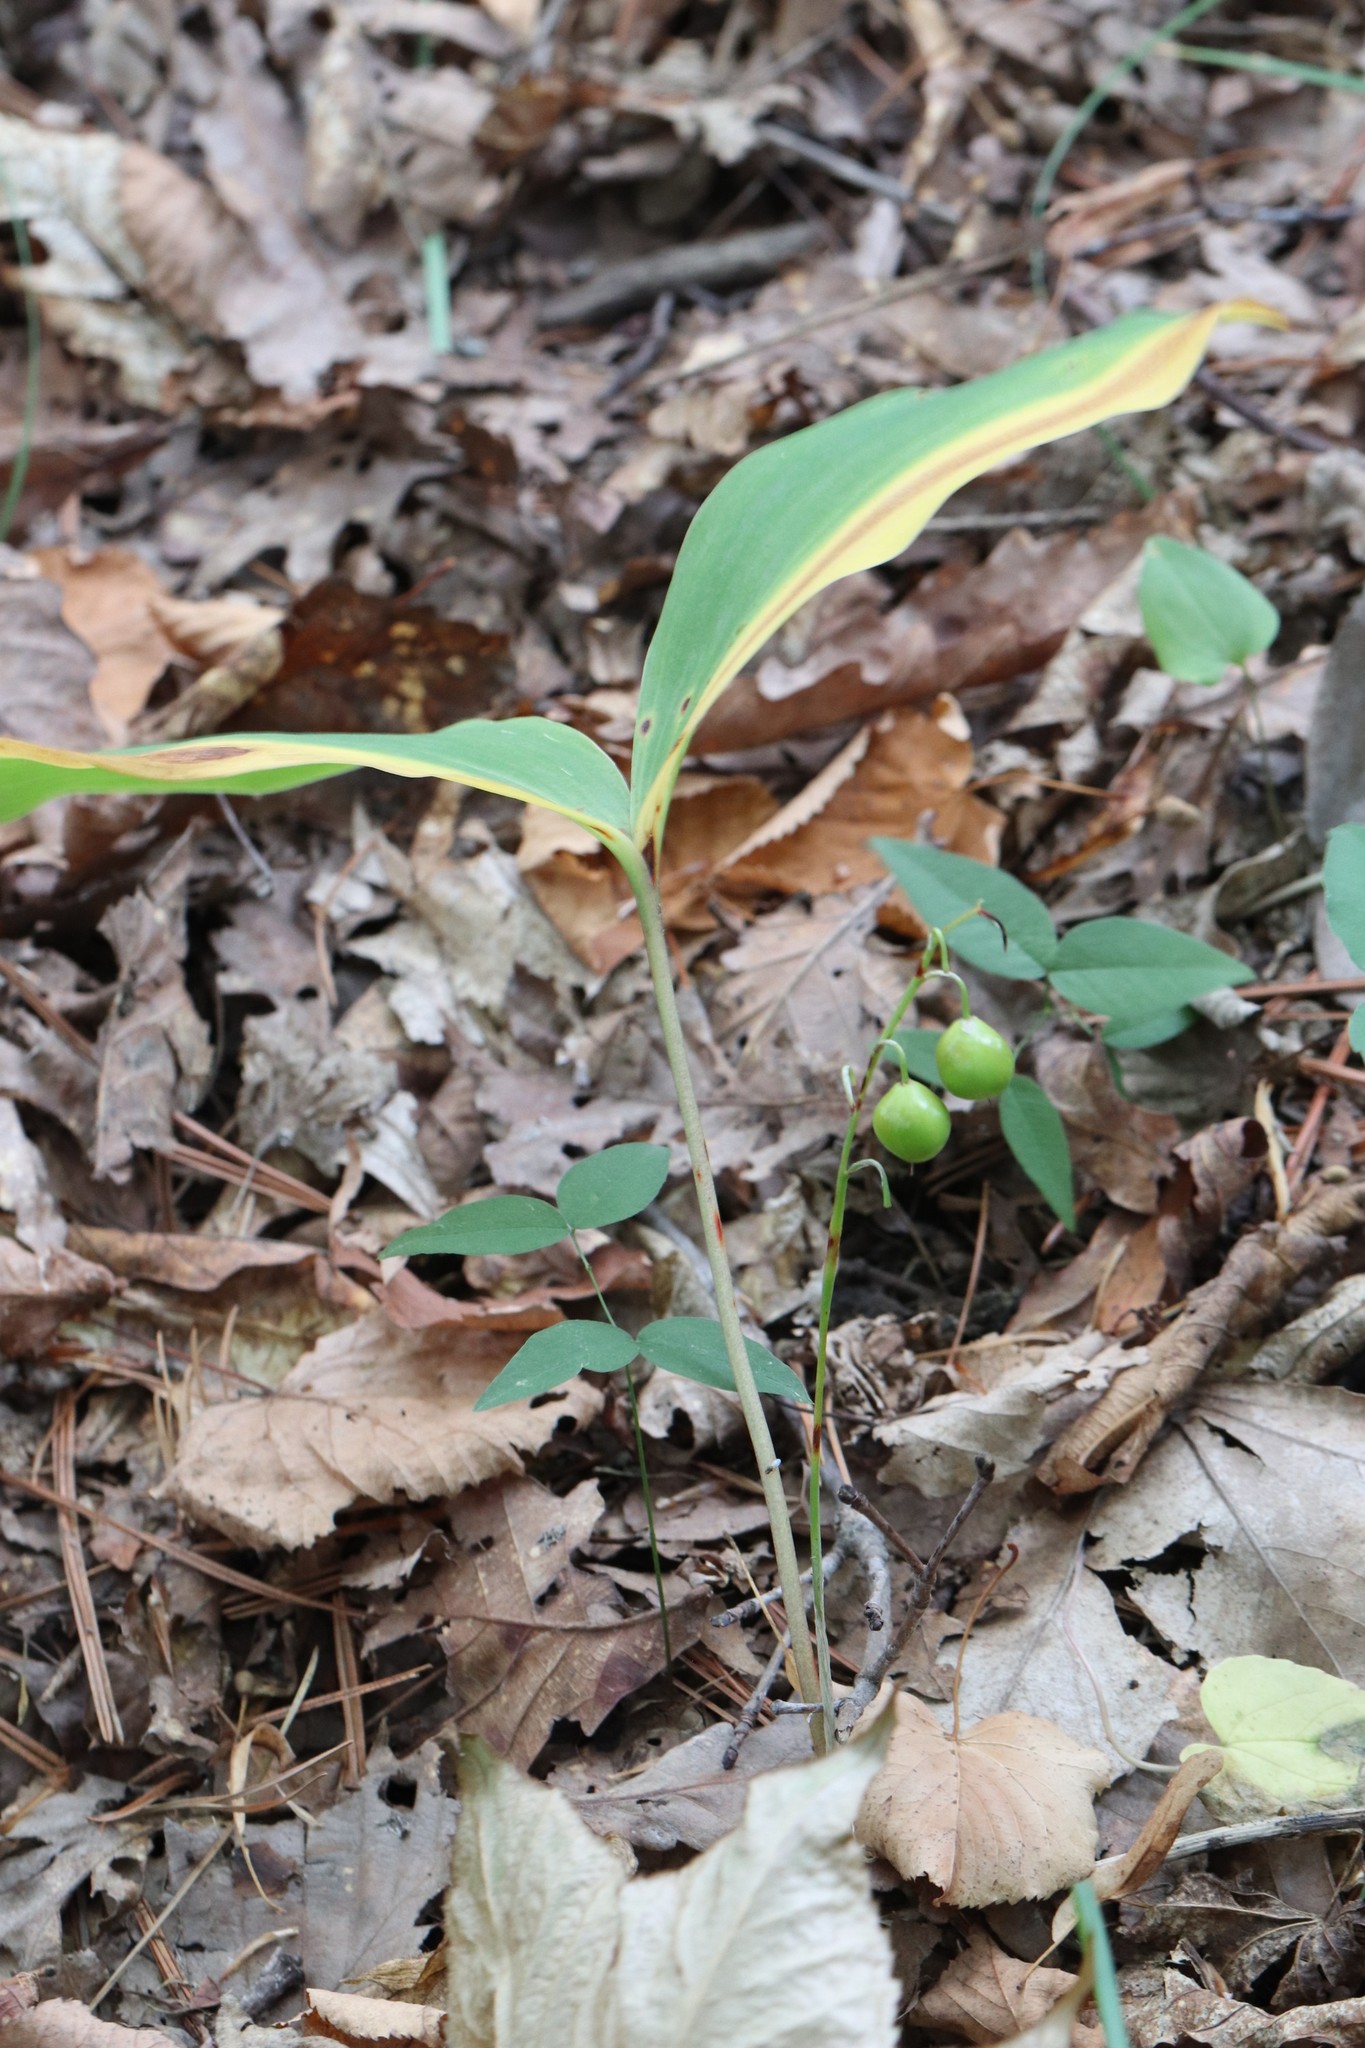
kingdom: Plantae
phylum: Tracheophyta
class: Liliopsida
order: Asparagales
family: Asparagaceae
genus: Convallaria
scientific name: Convallaria keiskei
